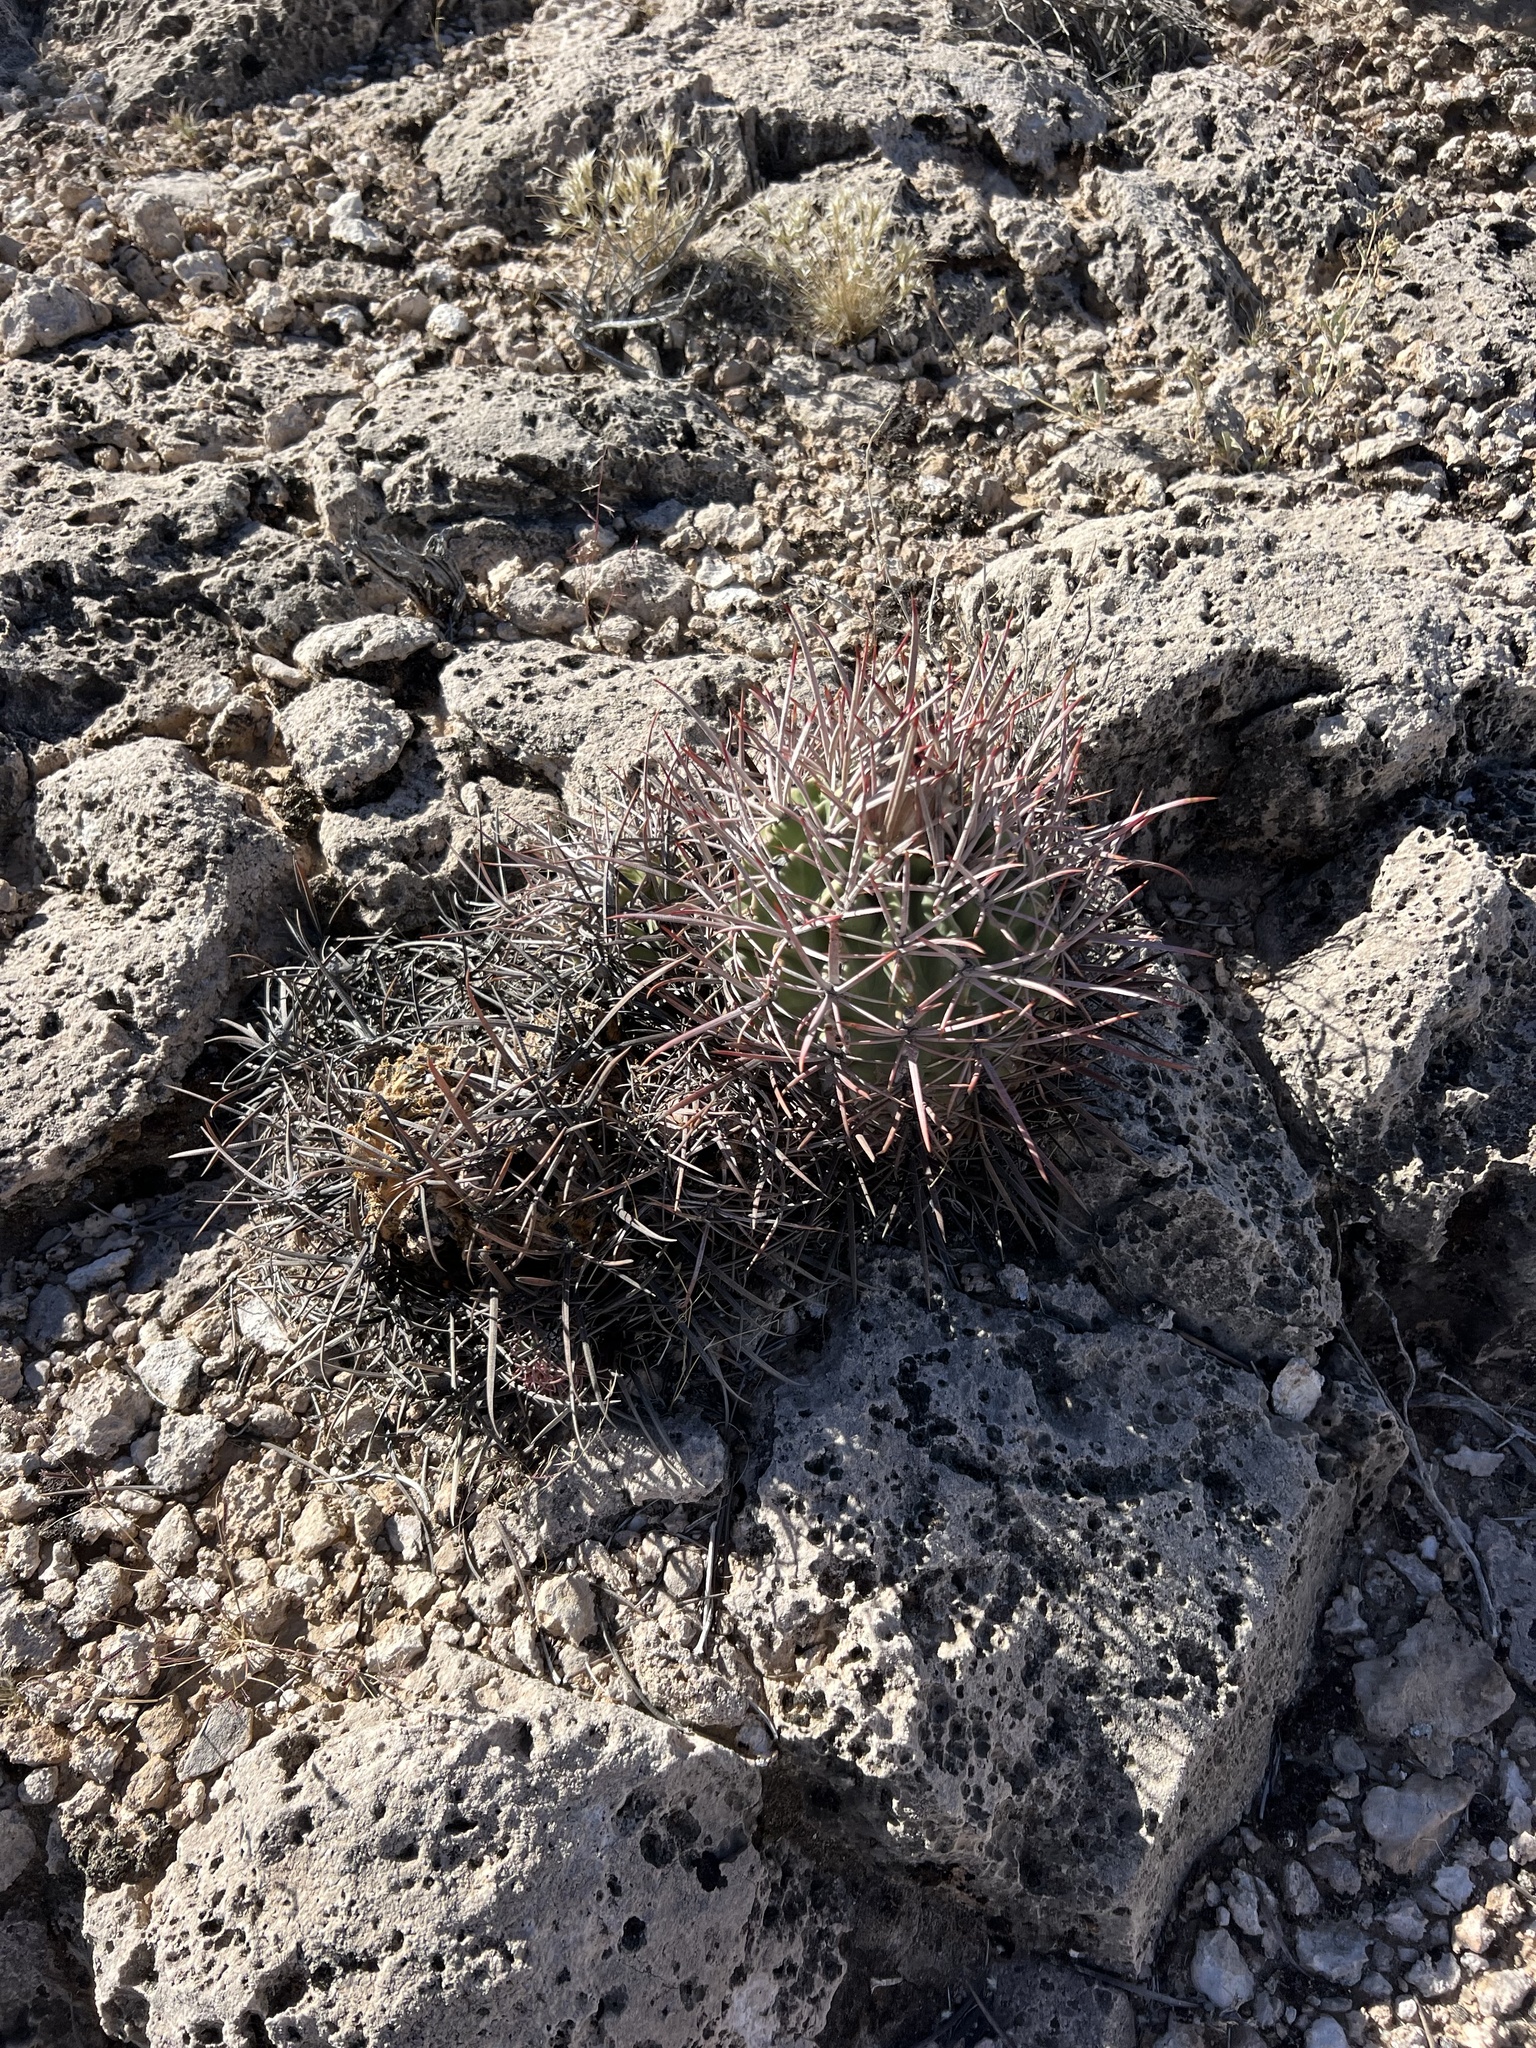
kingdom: Plantae
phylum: Tracheophyta
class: Magnoliopsida
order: Caryophyllales
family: Cactaceae
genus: Echinocactus
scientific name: Echinocactus polycephalus
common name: Cottontop cactus
